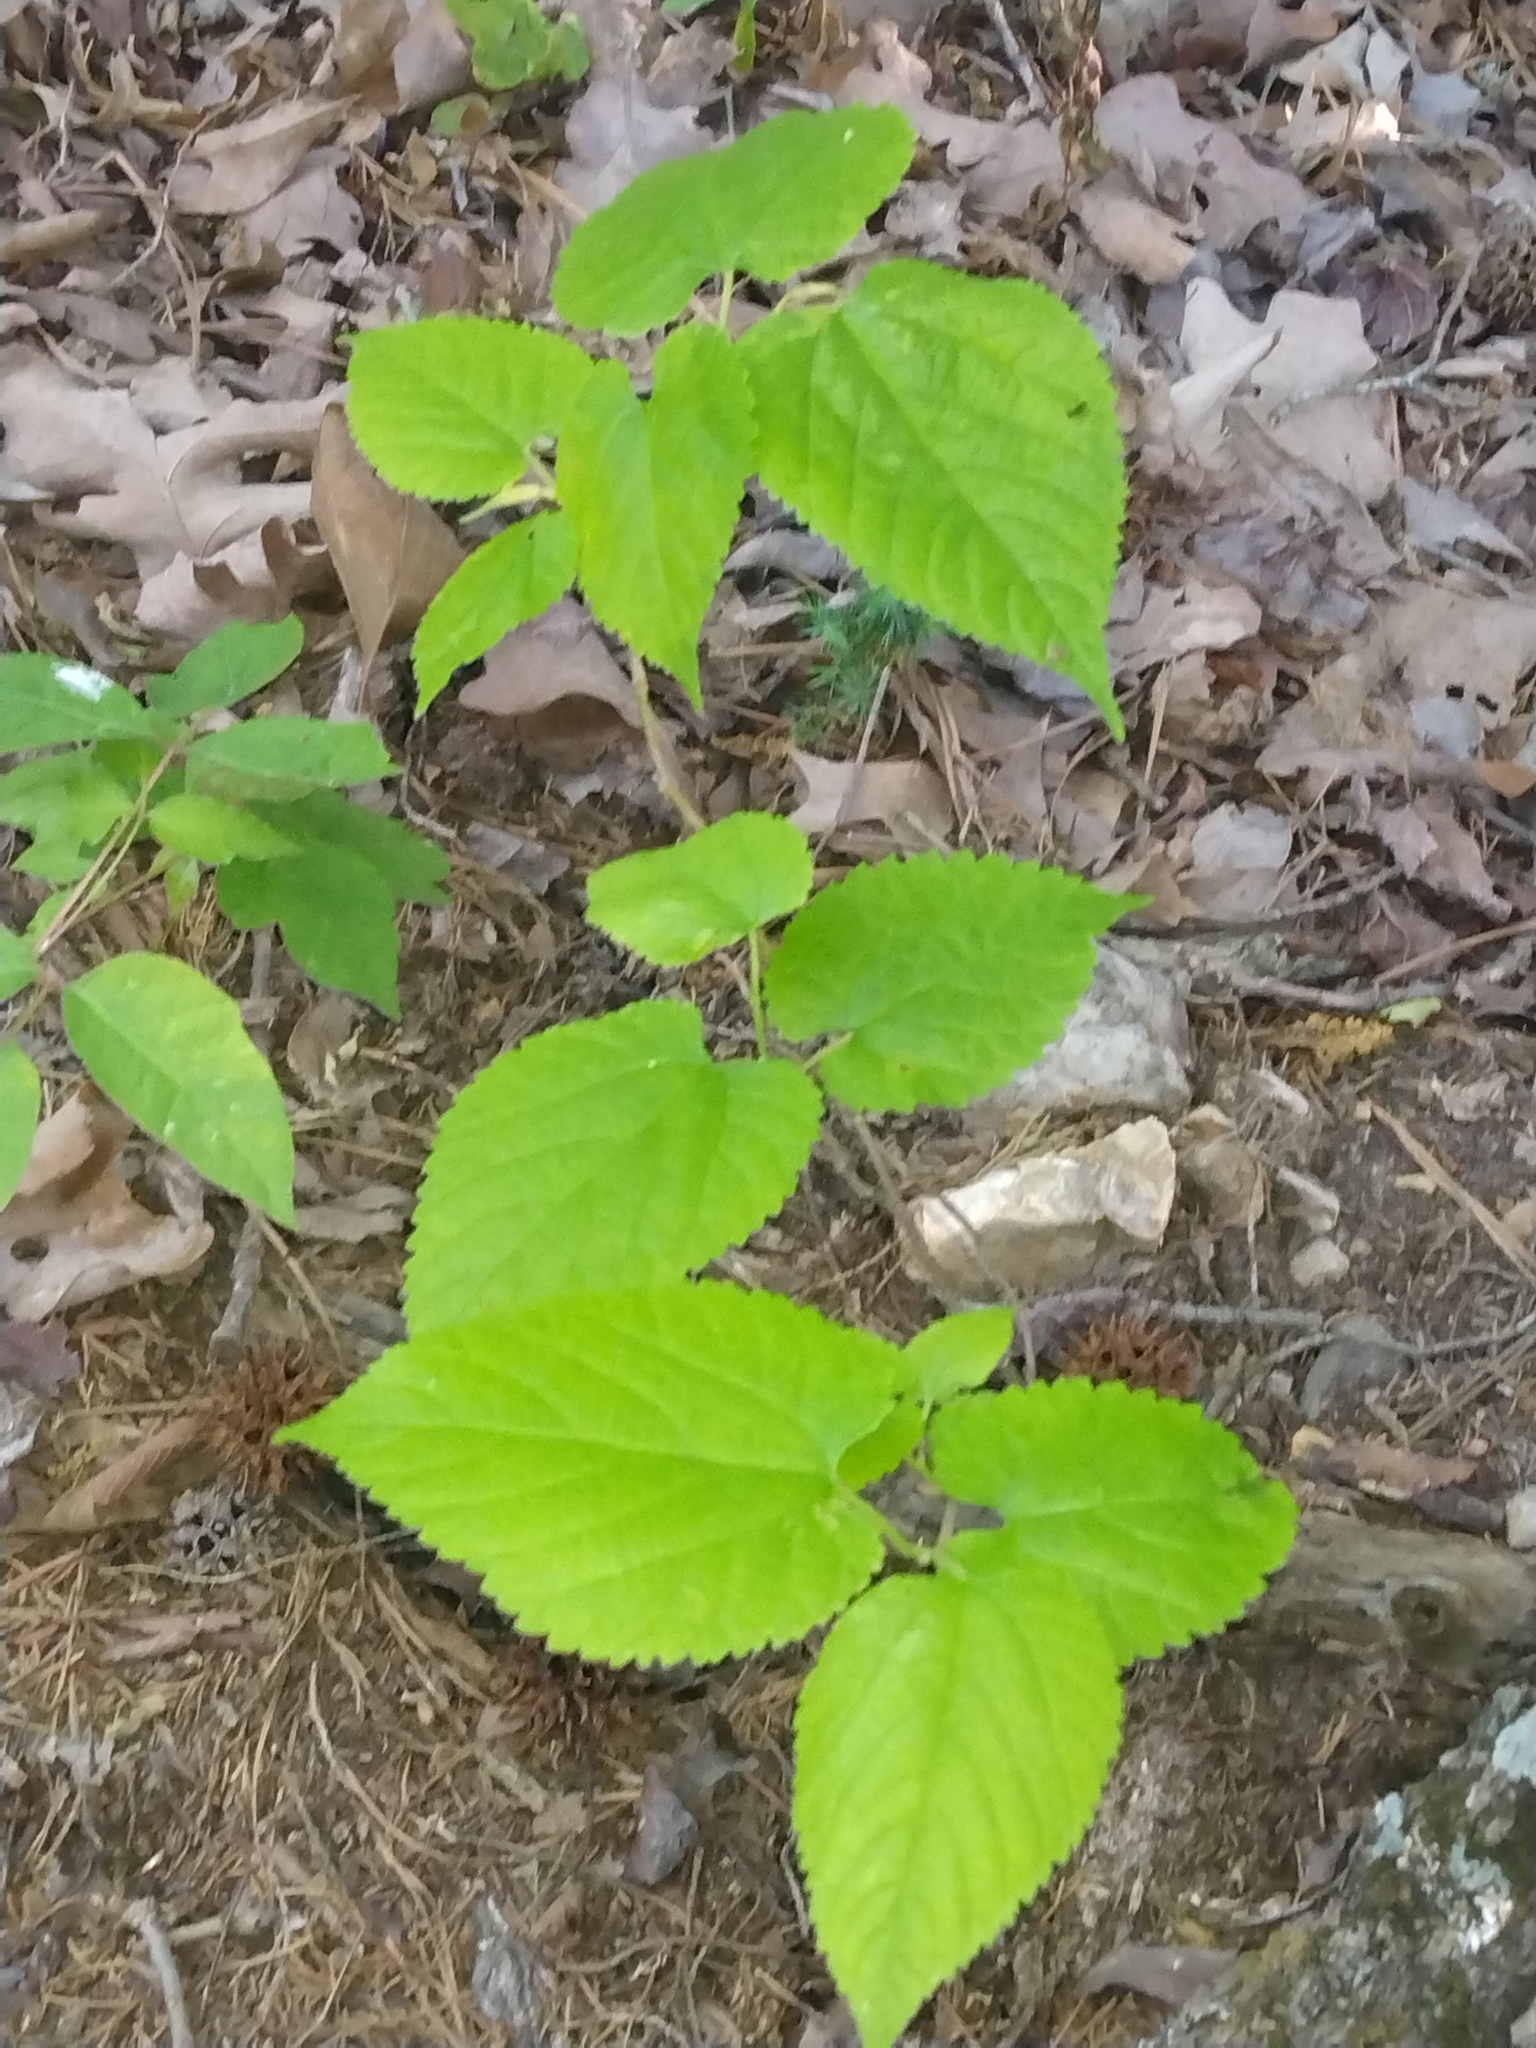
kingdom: Plantae
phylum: Tracheophyta
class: Magnoliopsida
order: Rosales
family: Moraceae
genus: Morus
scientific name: Morus rubra
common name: Red mulberry
